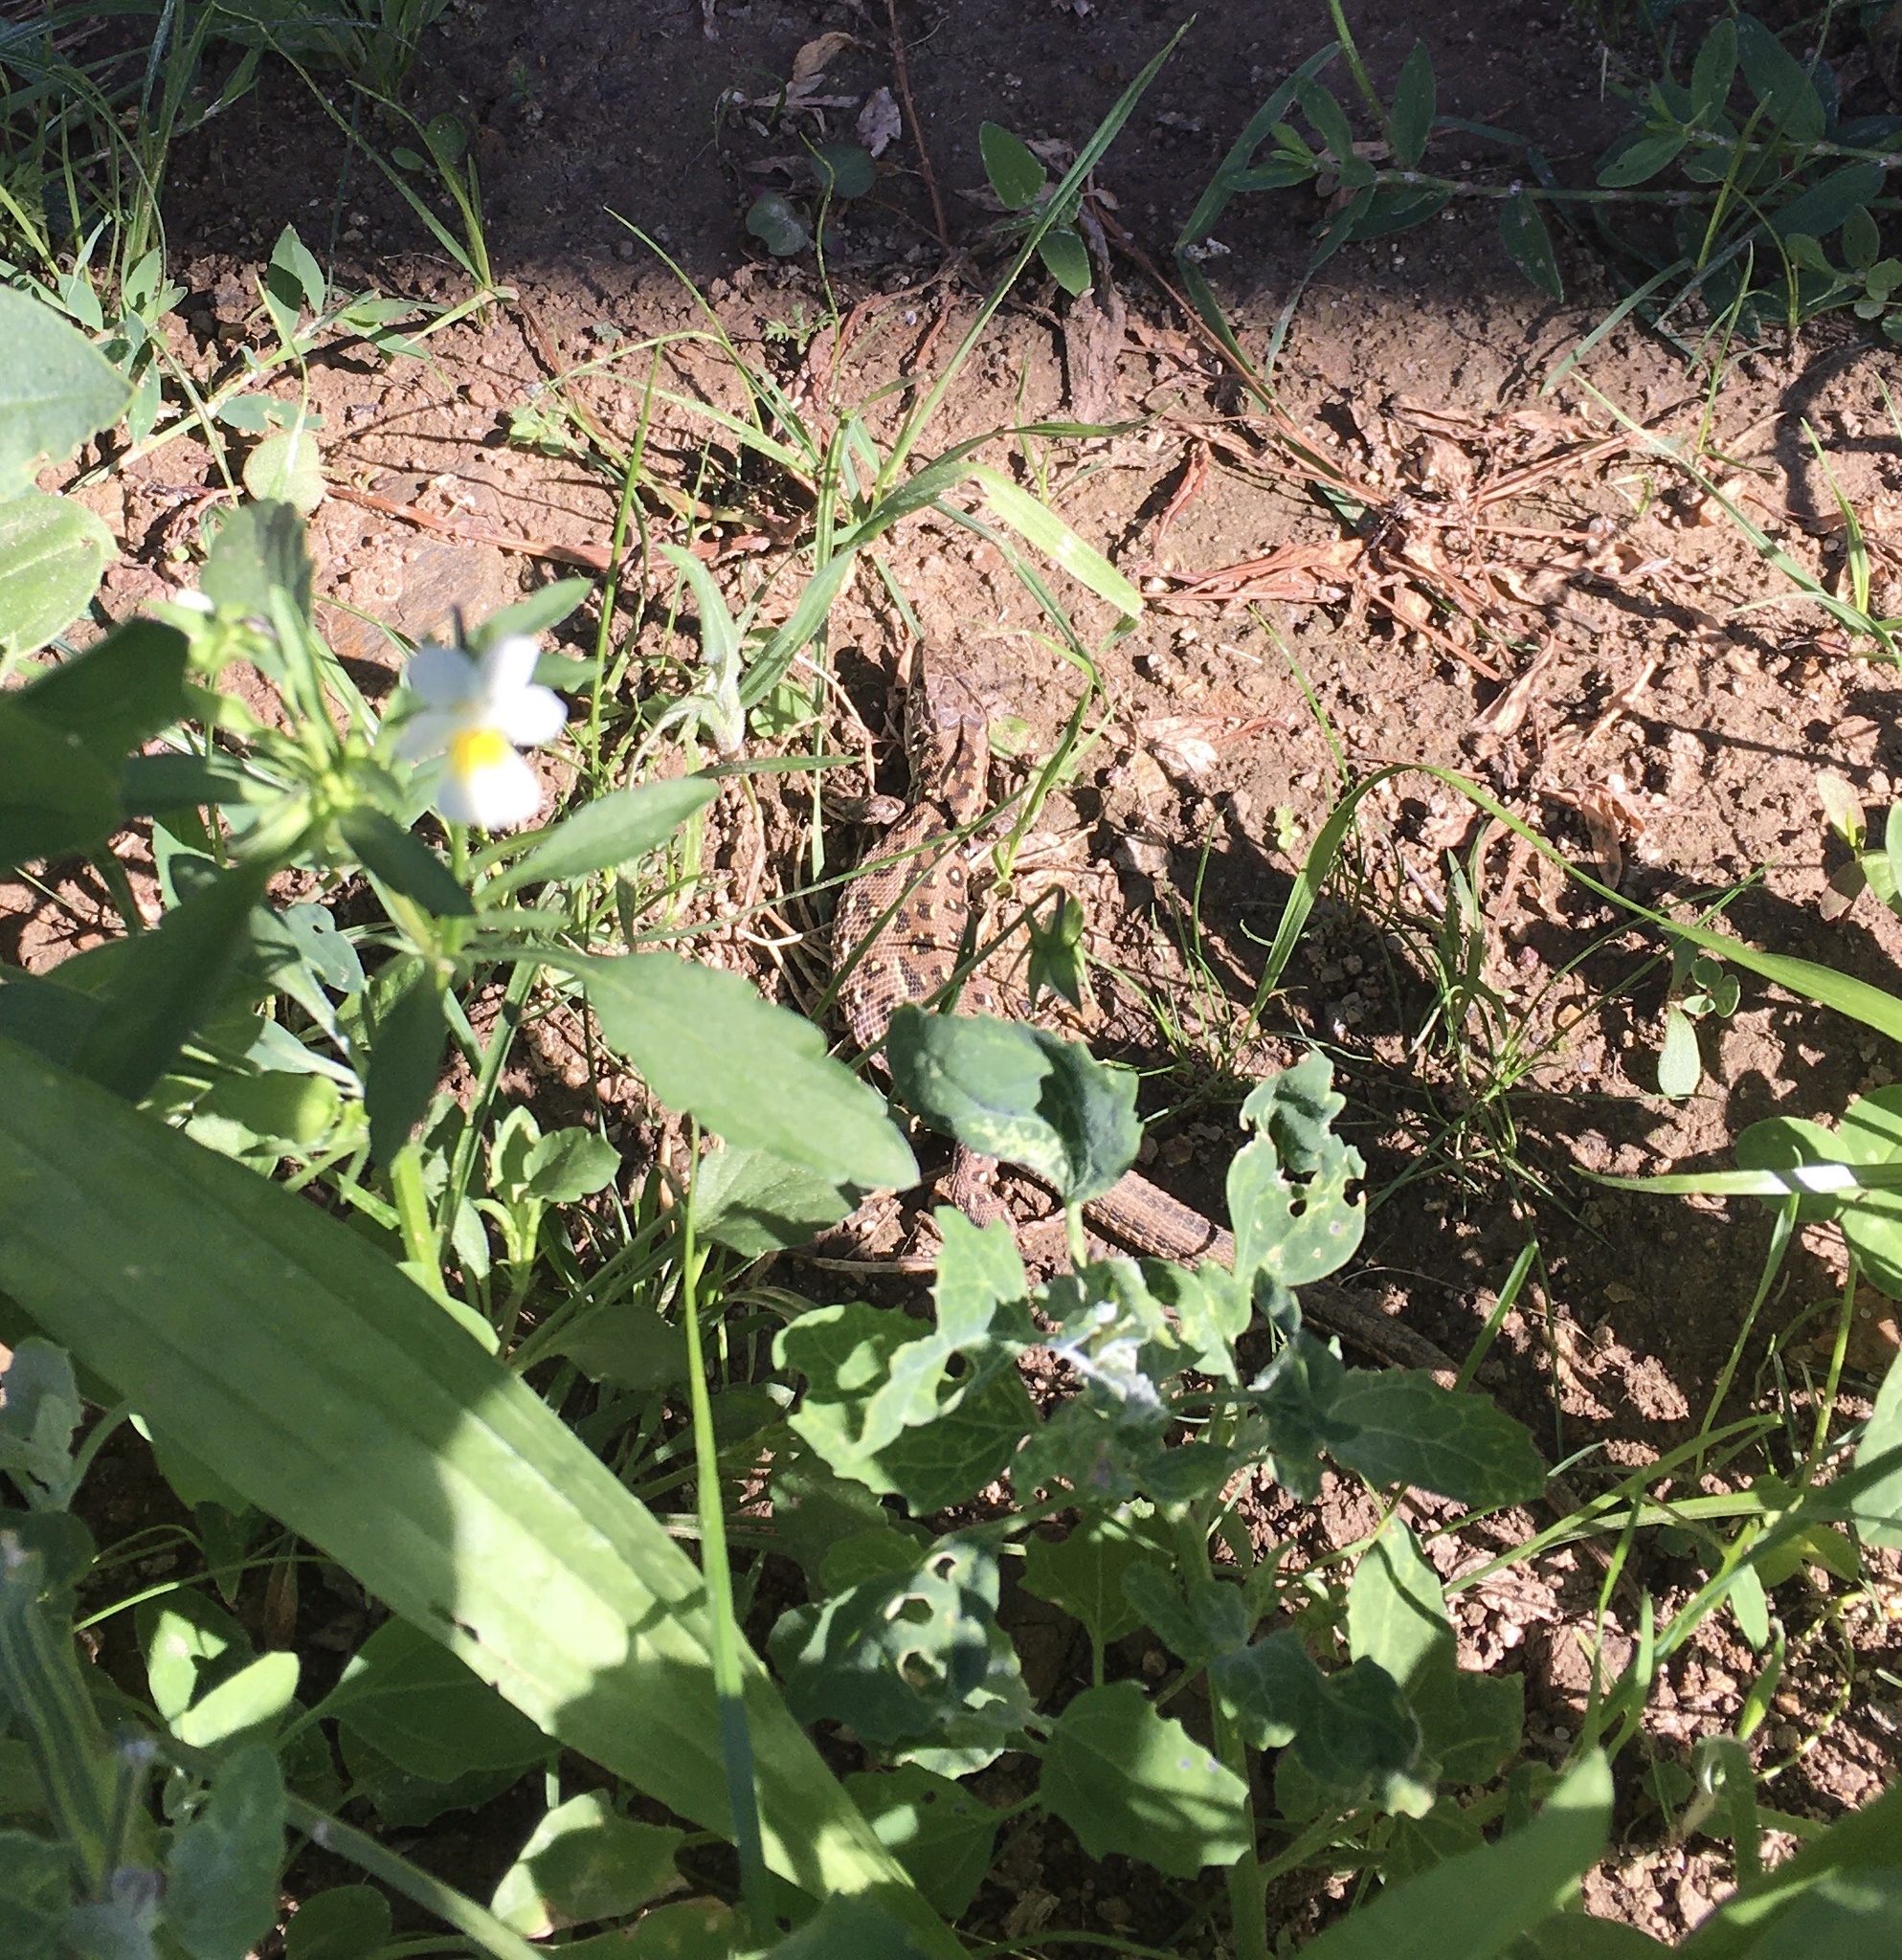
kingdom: Animalia
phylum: Chordata
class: Squamata
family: Lacertidae
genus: Lacerta
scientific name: Lacerta agilis
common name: Sand lizard
